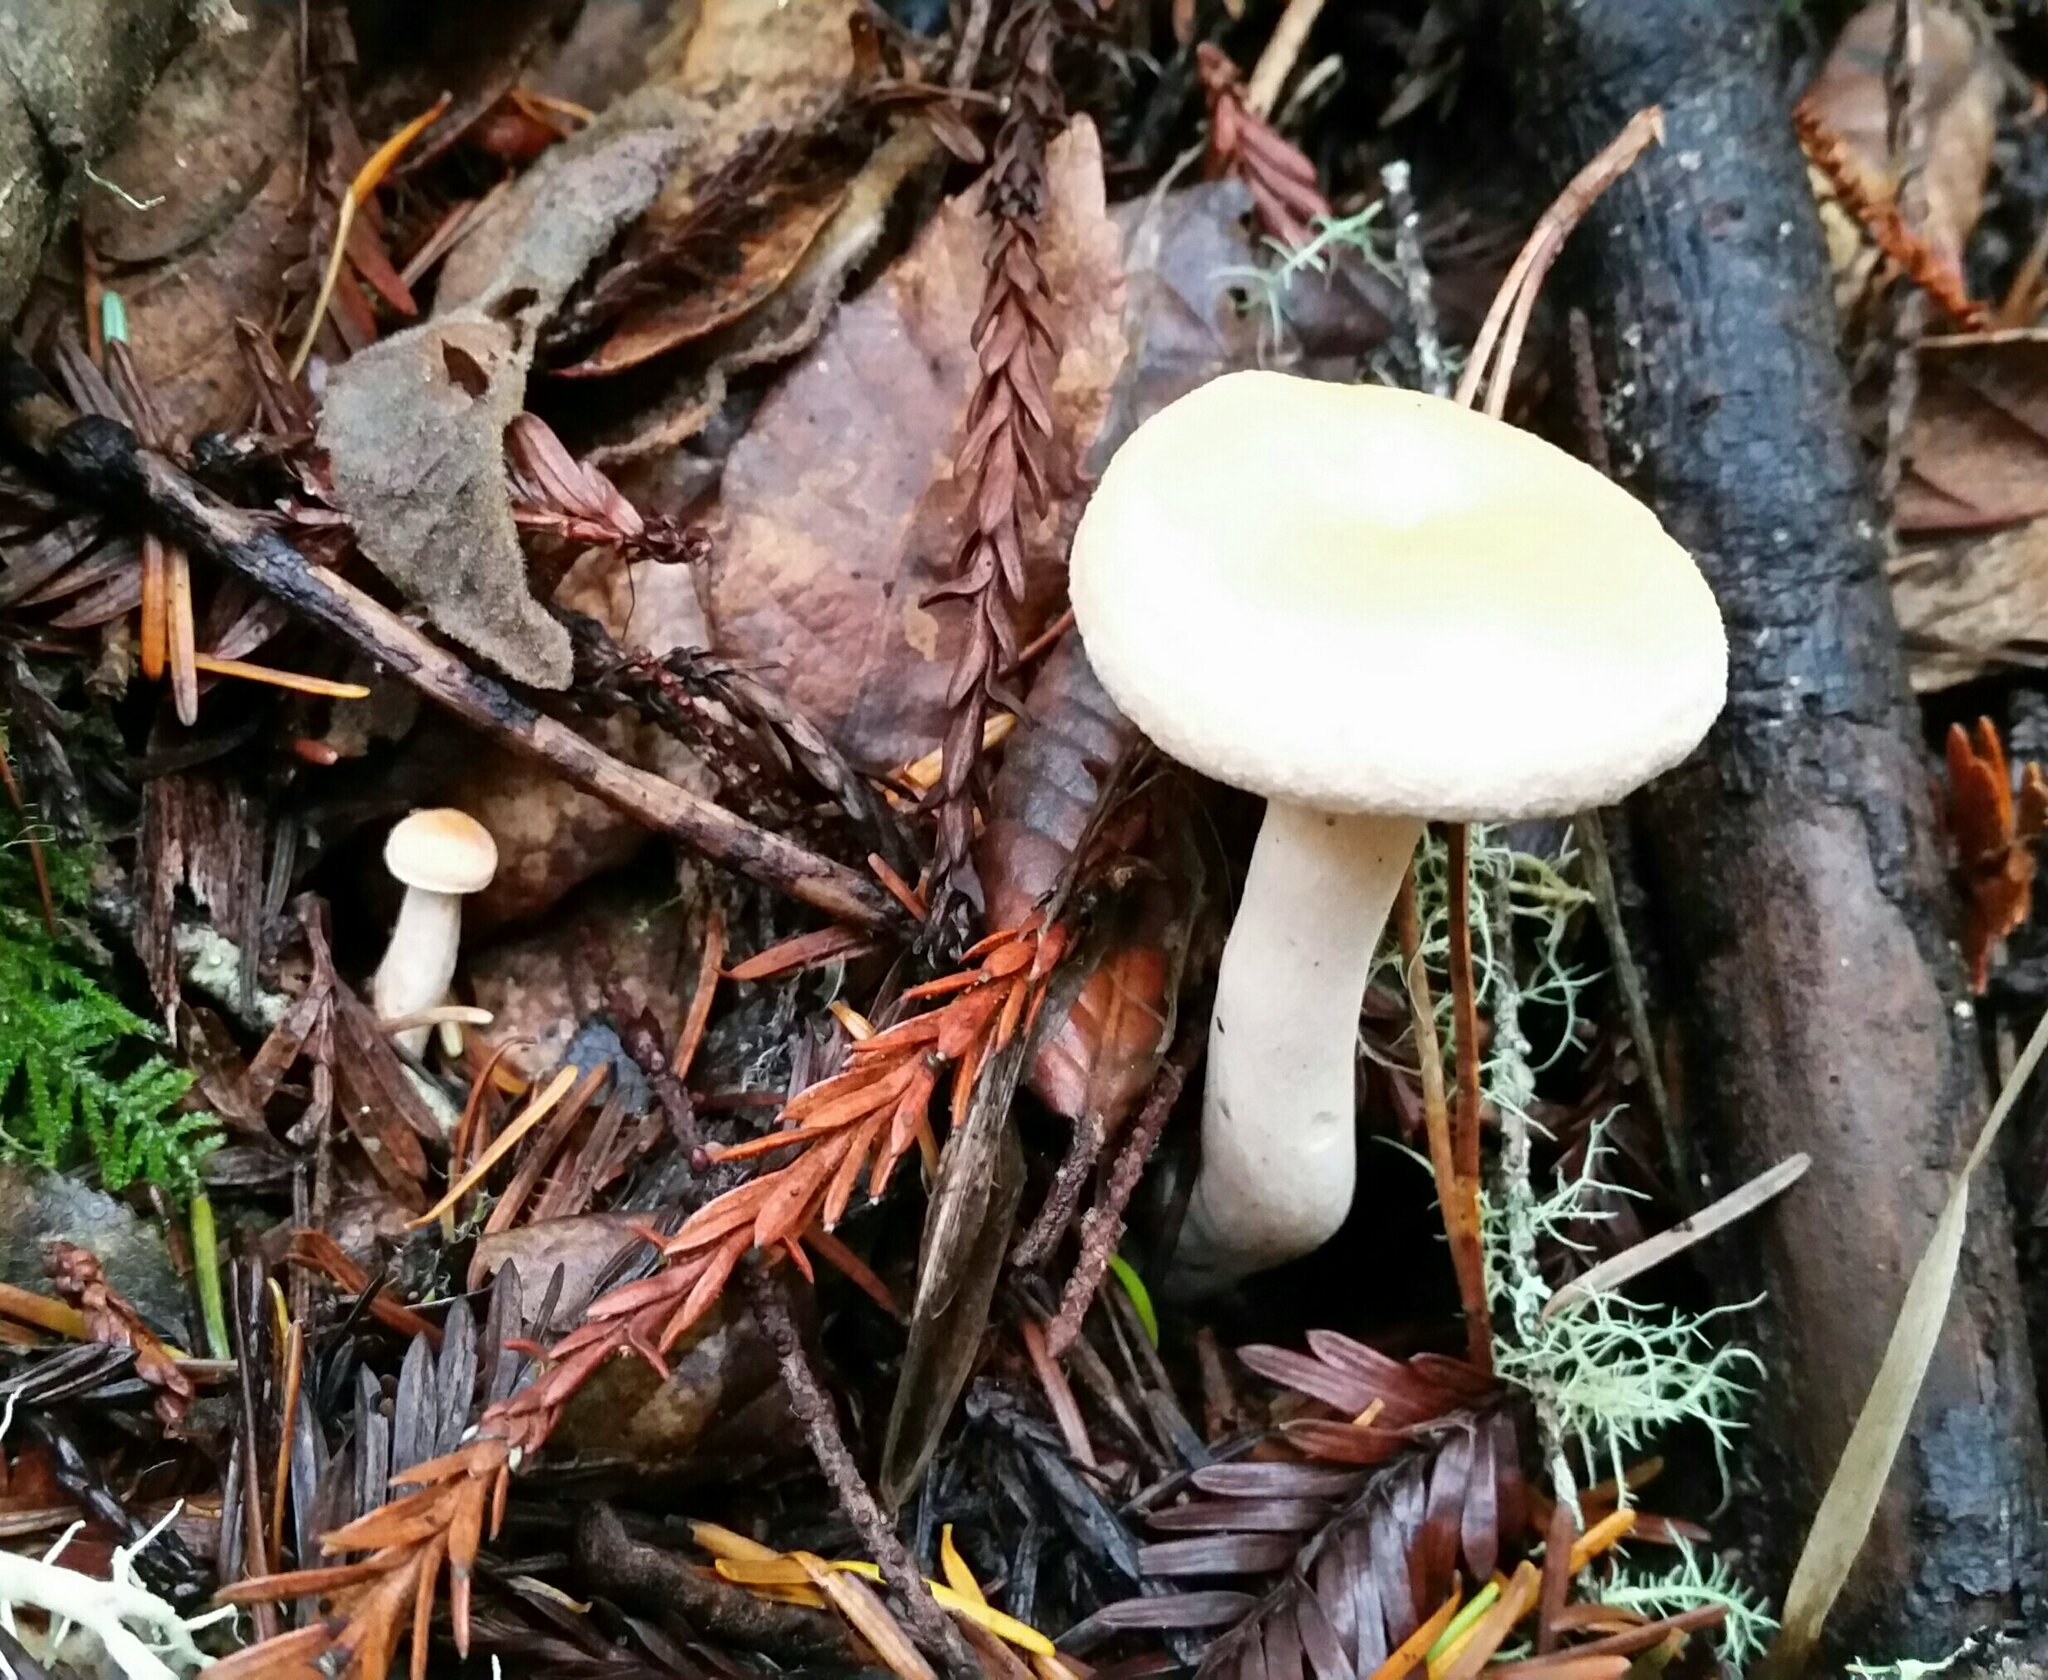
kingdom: Fungi
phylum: Basidiomycota
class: Agaricomycetes
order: Cantharellales
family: Hydnaceae
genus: Hydnum
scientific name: Hydnum oregonense
